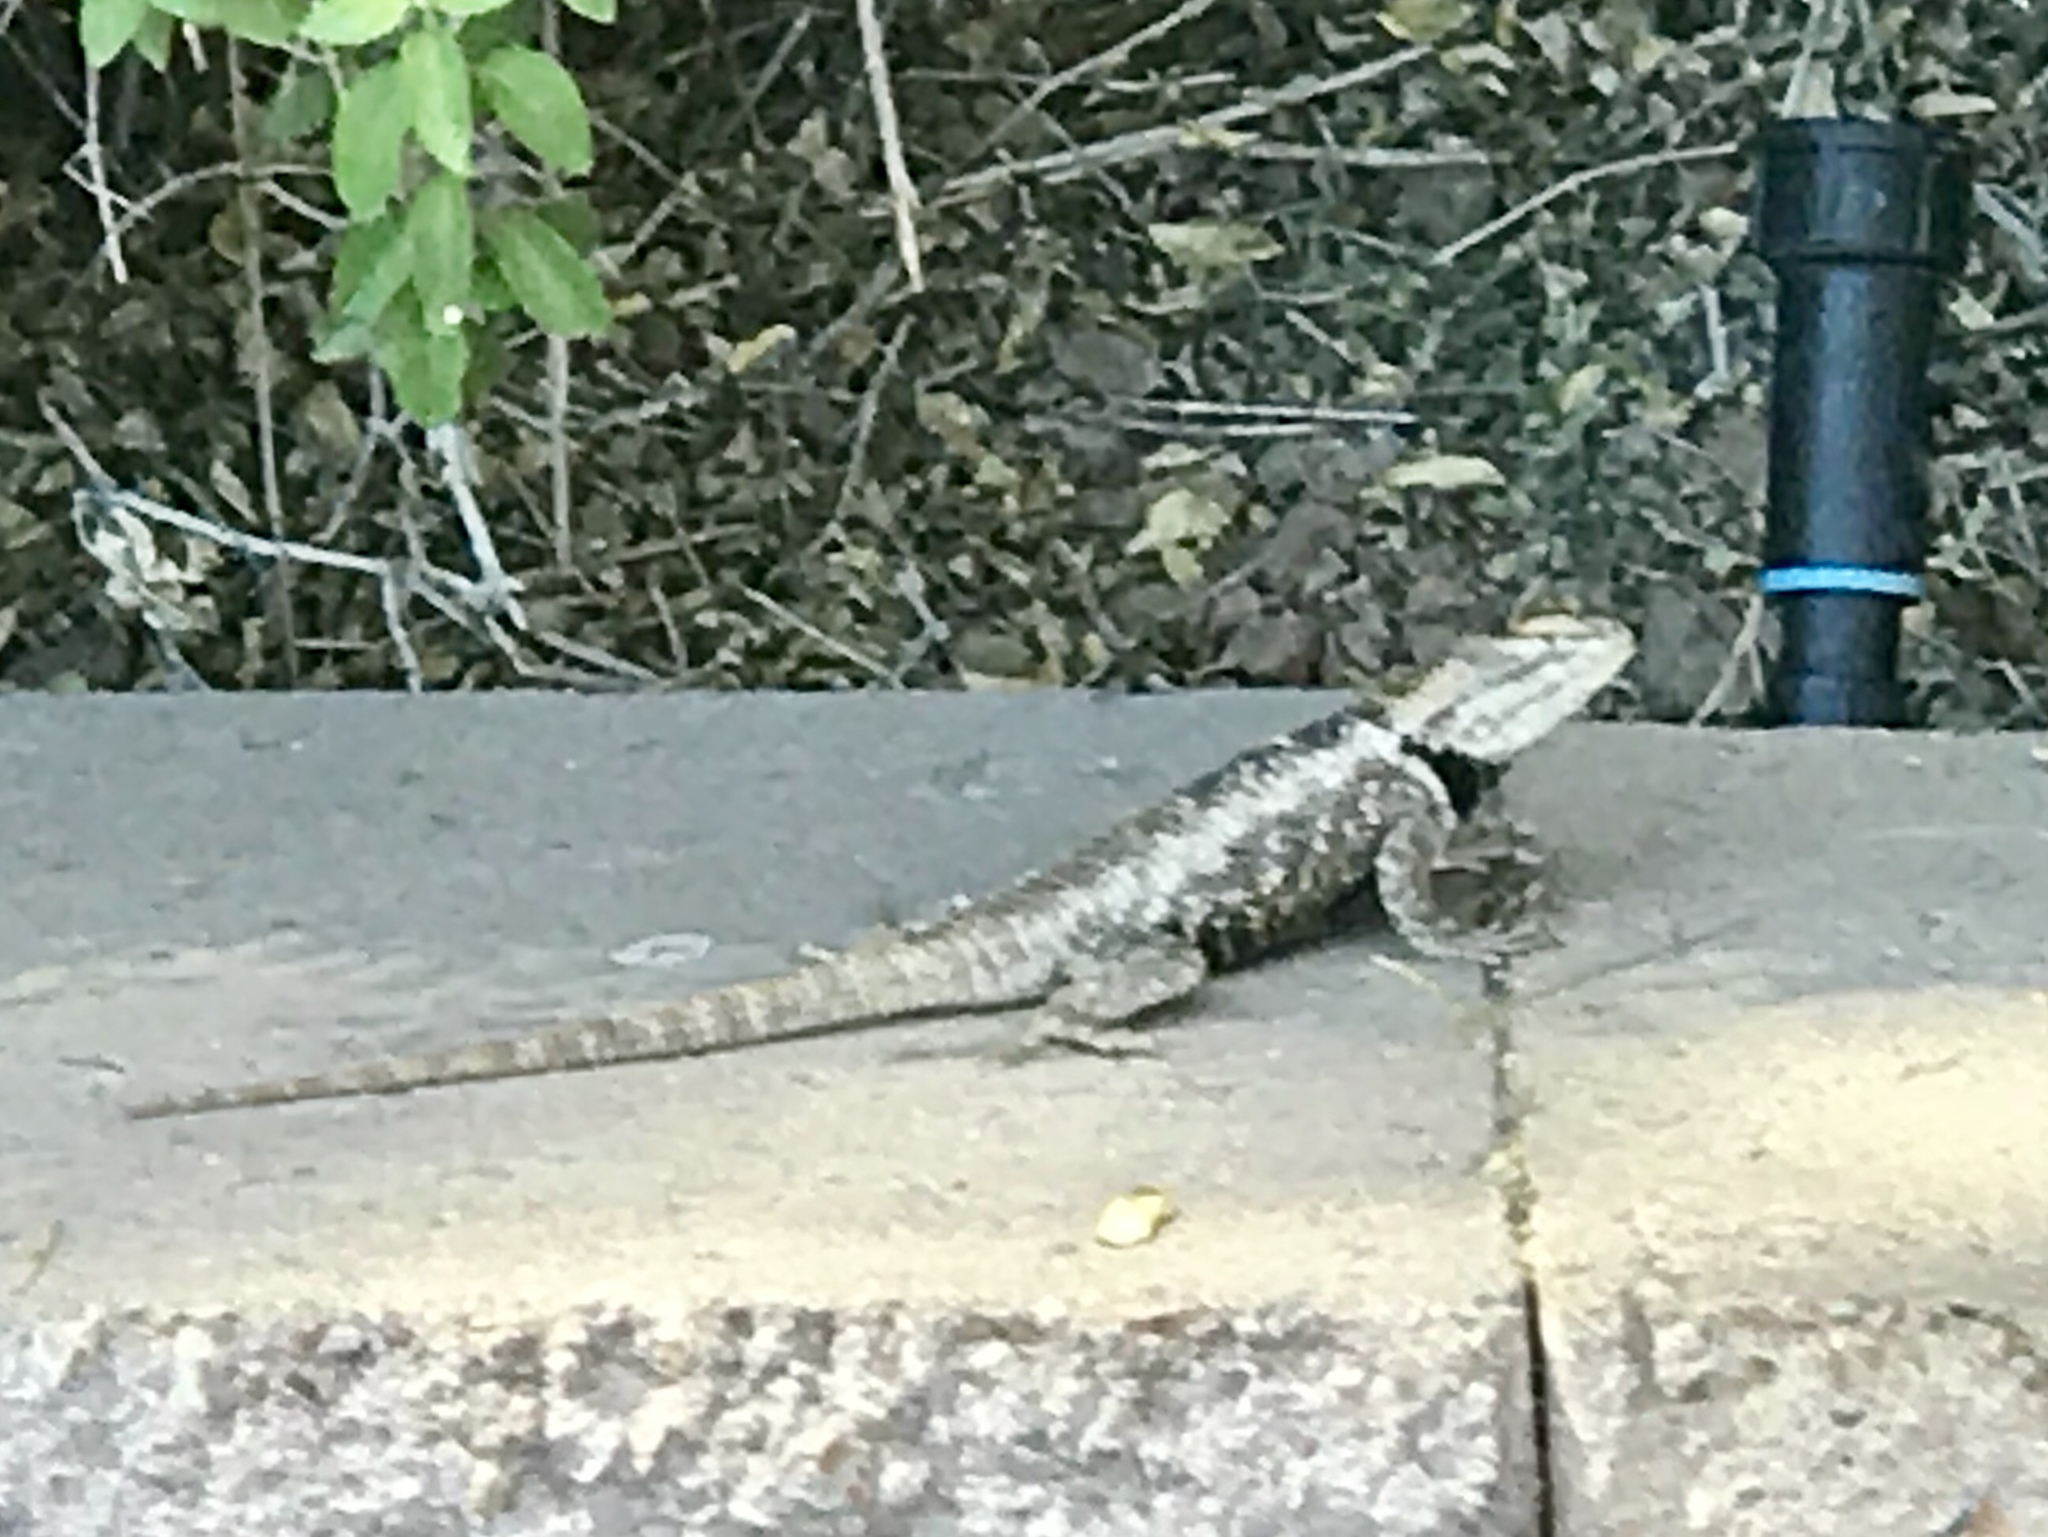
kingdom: Animalia
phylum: Chordata
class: Squamata
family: Phrynosomatidae
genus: Sceloporus
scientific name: Sceloporus magister
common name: Desert spiny lizard
